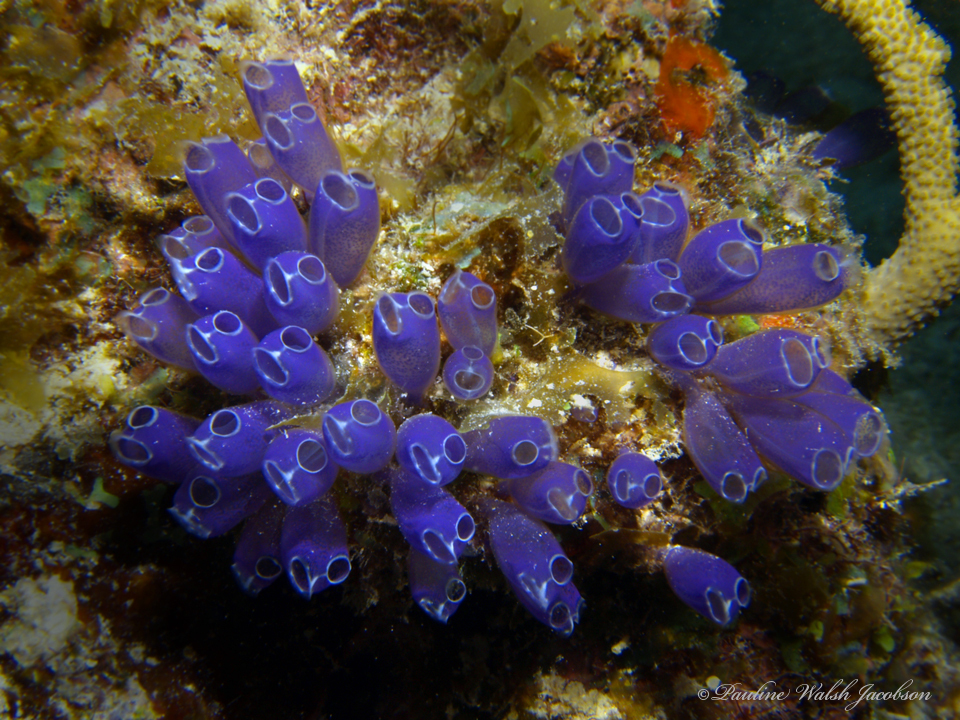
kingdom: Animalia
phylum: Chordata
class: Ascidiacea
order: Aplousobranchia
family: Clavelinidae
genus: Clavelina
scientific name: Clavelina puertosecensis
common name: Blue bell tunicate
